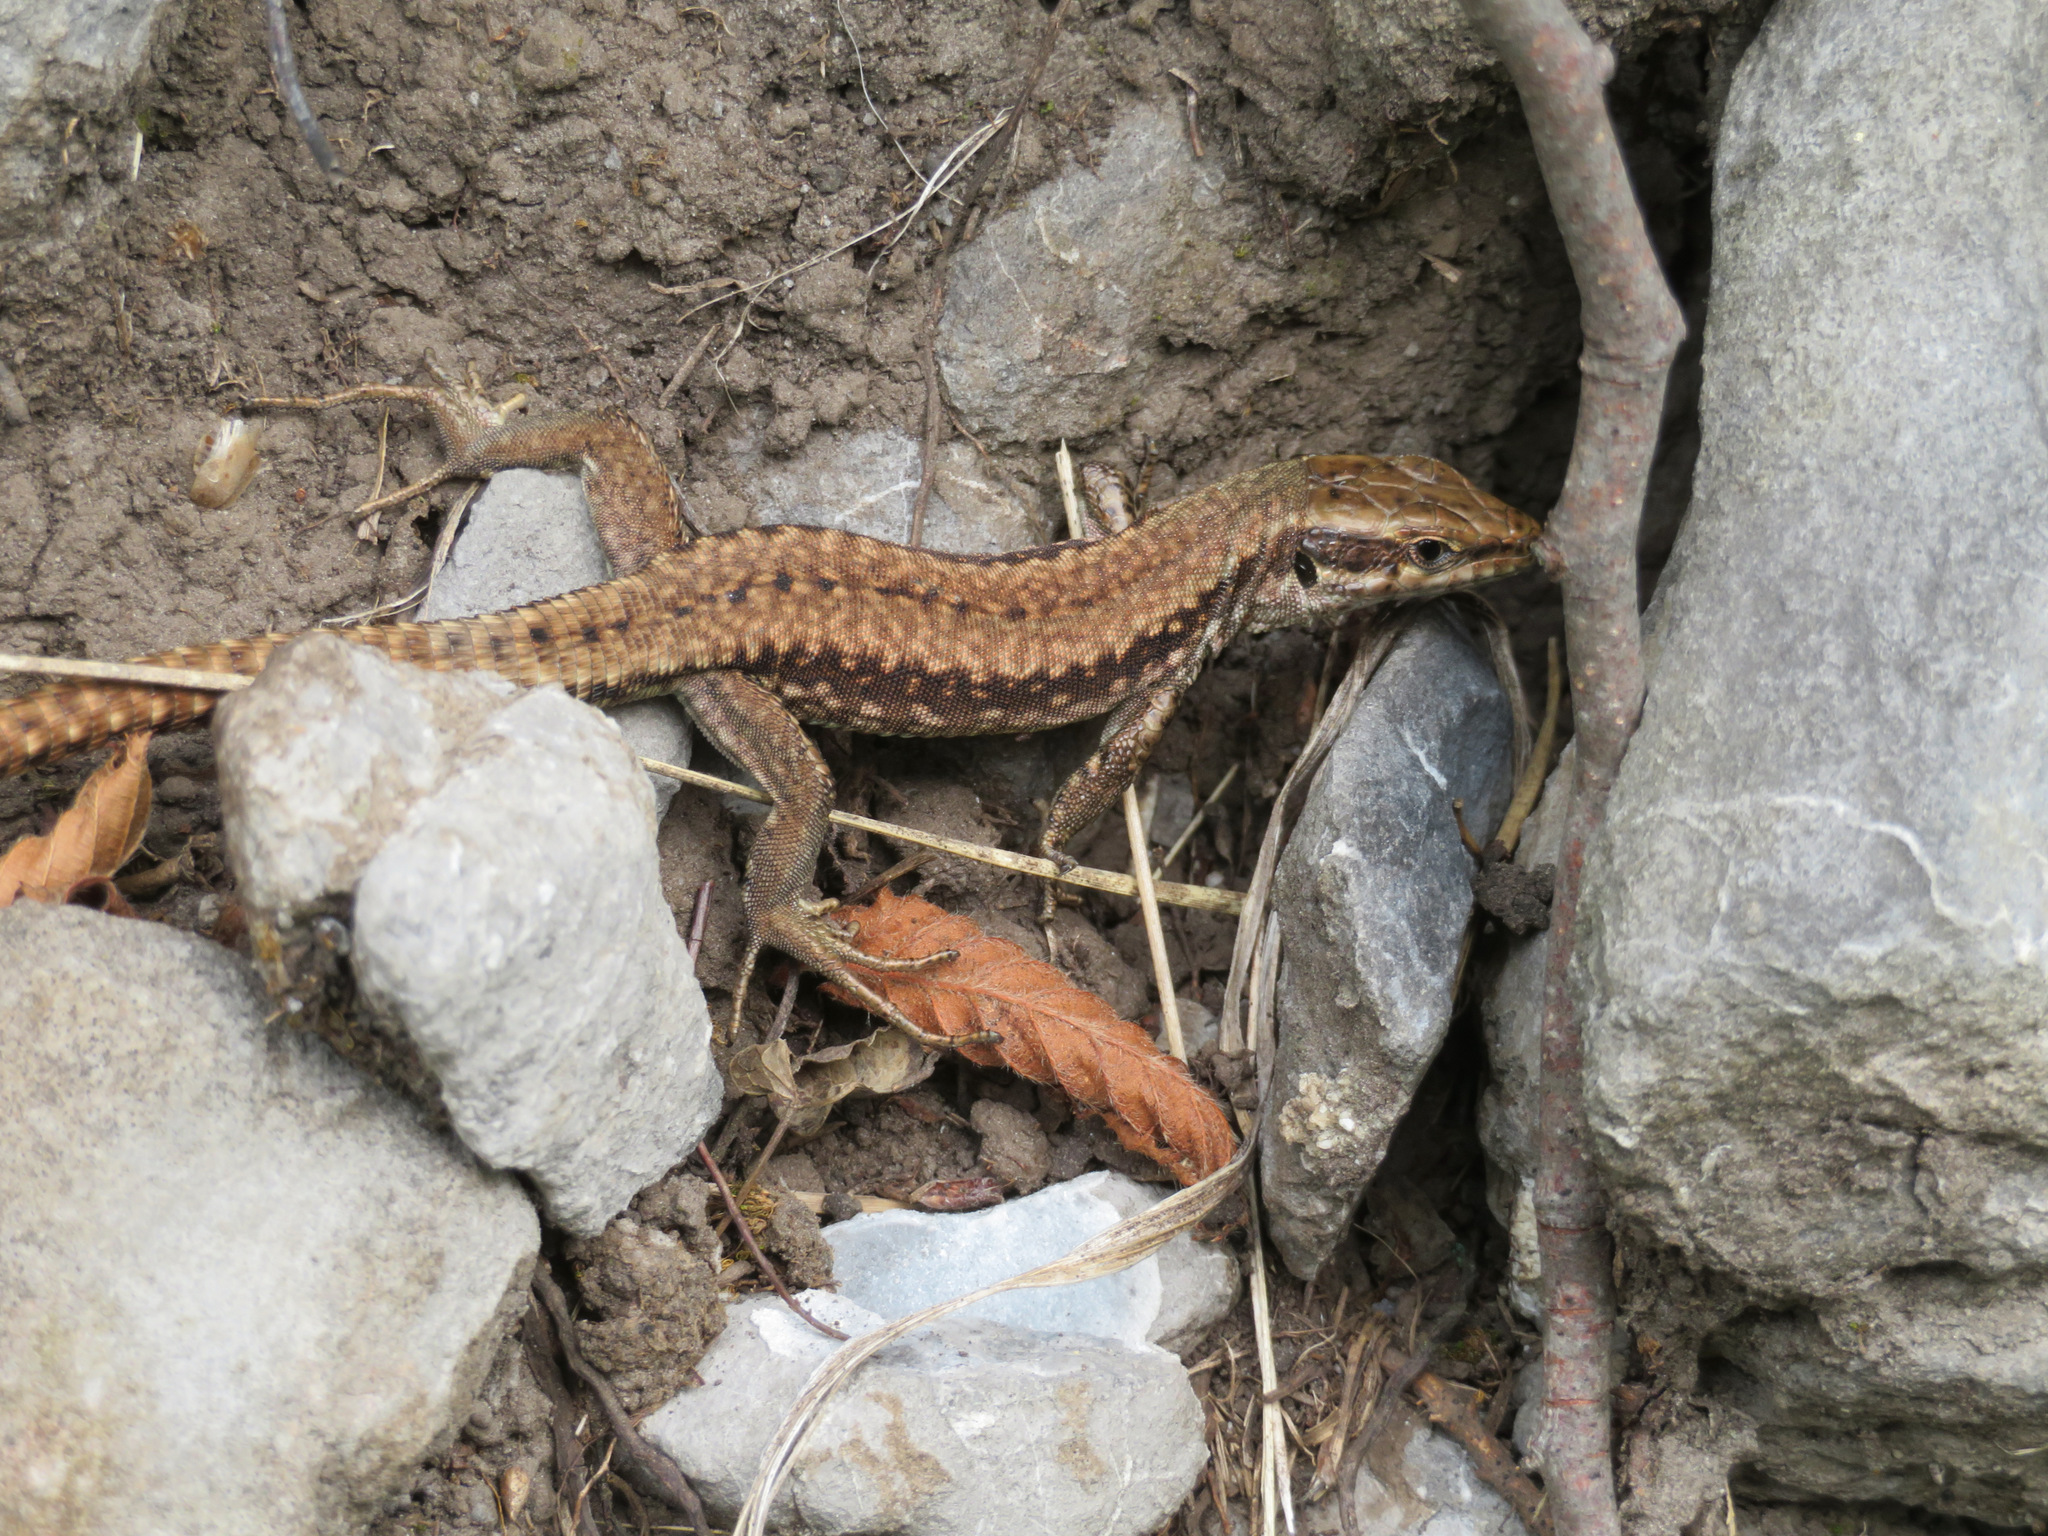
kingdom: Animalia
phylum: Chordata
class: Squamata
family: Lacertidae
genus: Podarcis
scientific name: Podarcis muralis
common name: Common wall lizard
